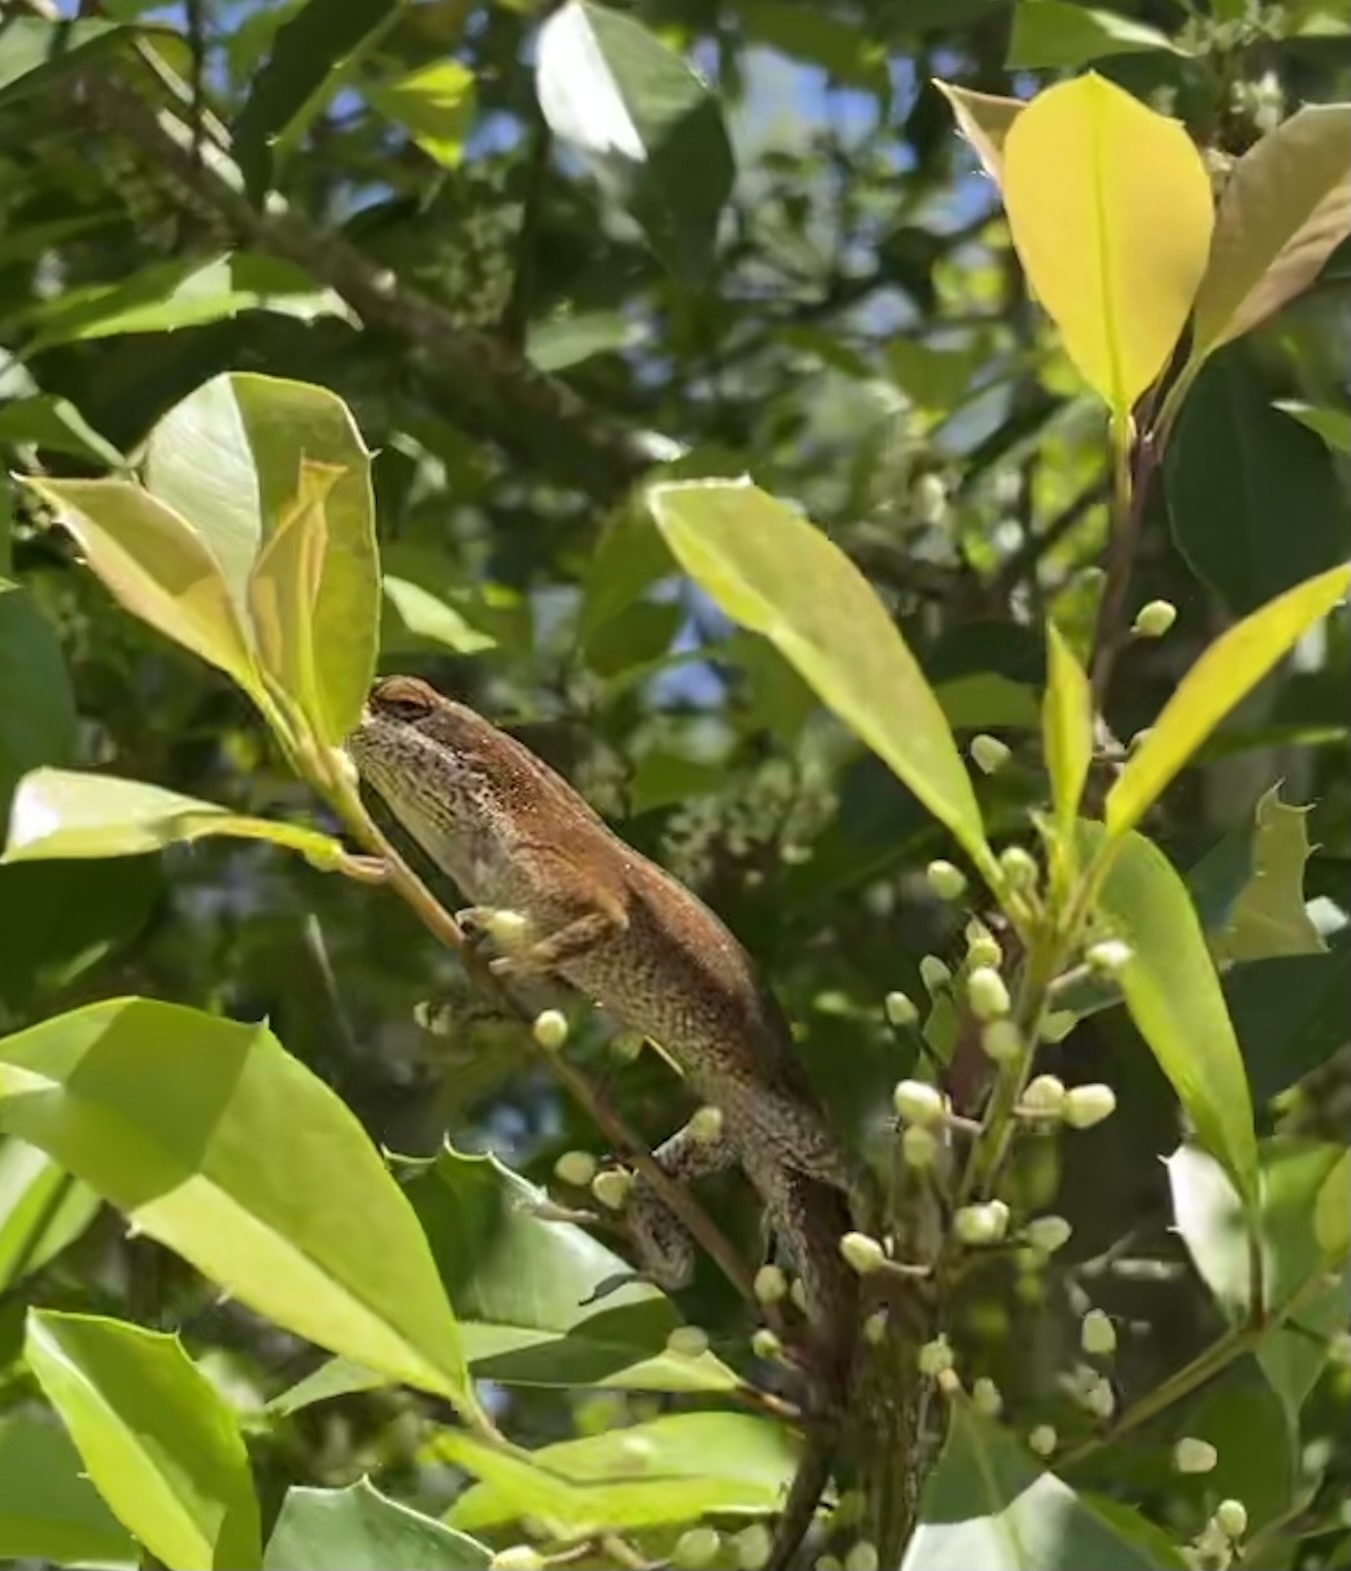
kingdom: Animalia
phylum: Chordata
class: Squamata
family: Dactyloidae
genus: Anolis
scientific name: Anolis carolinensis
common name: Green anole
